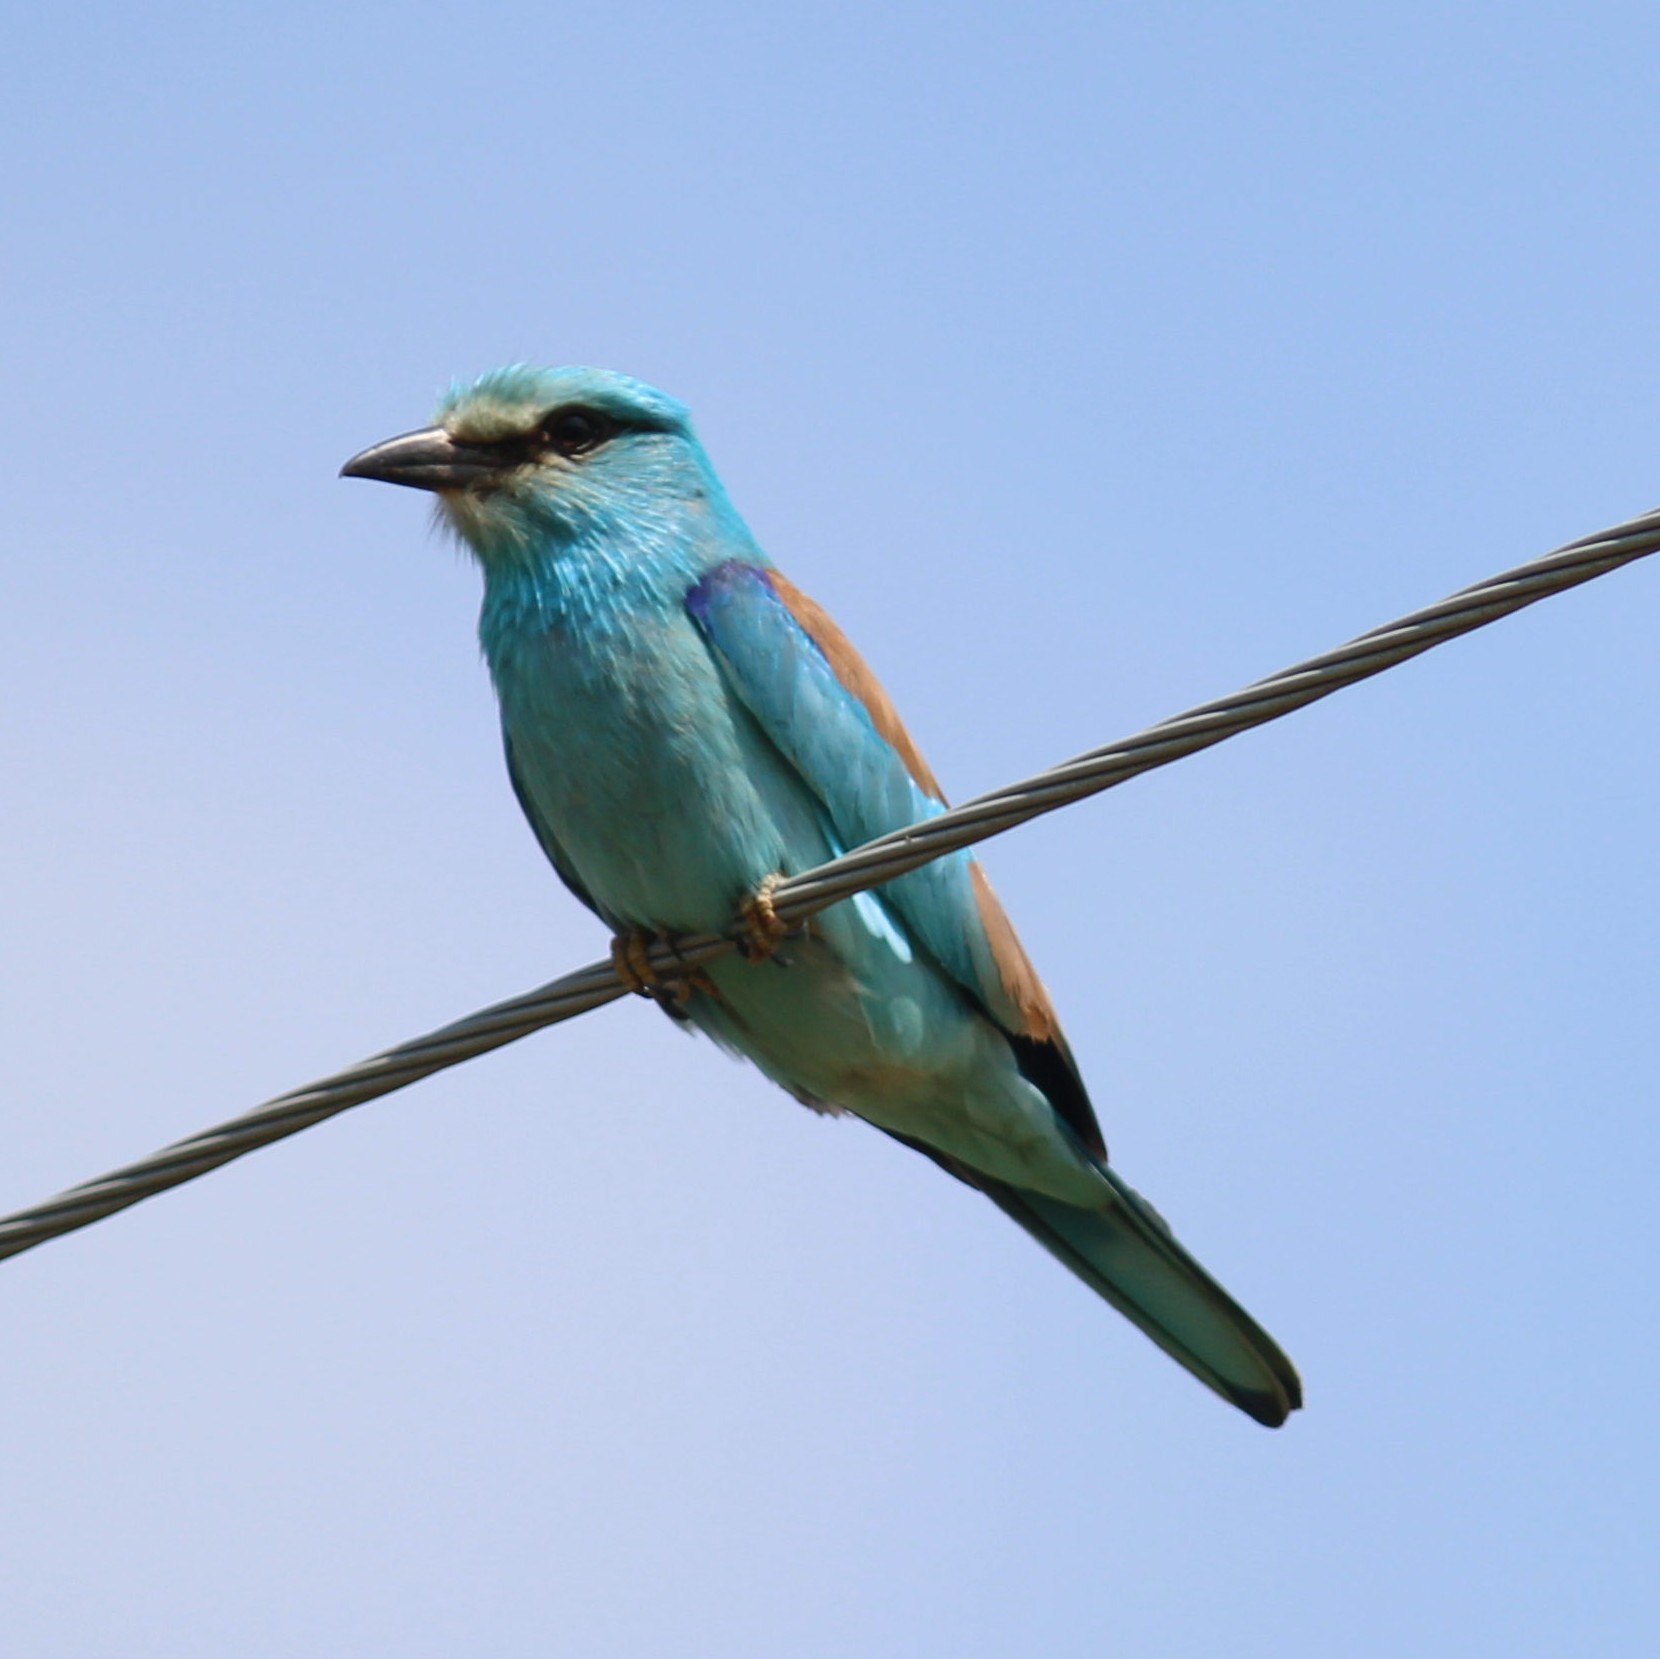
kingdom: Animalia
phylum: Chordata
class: Aves
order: Coraciiformes
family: Coraciidae
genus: Coracias
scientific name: Coracias garrulus
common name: European roller
